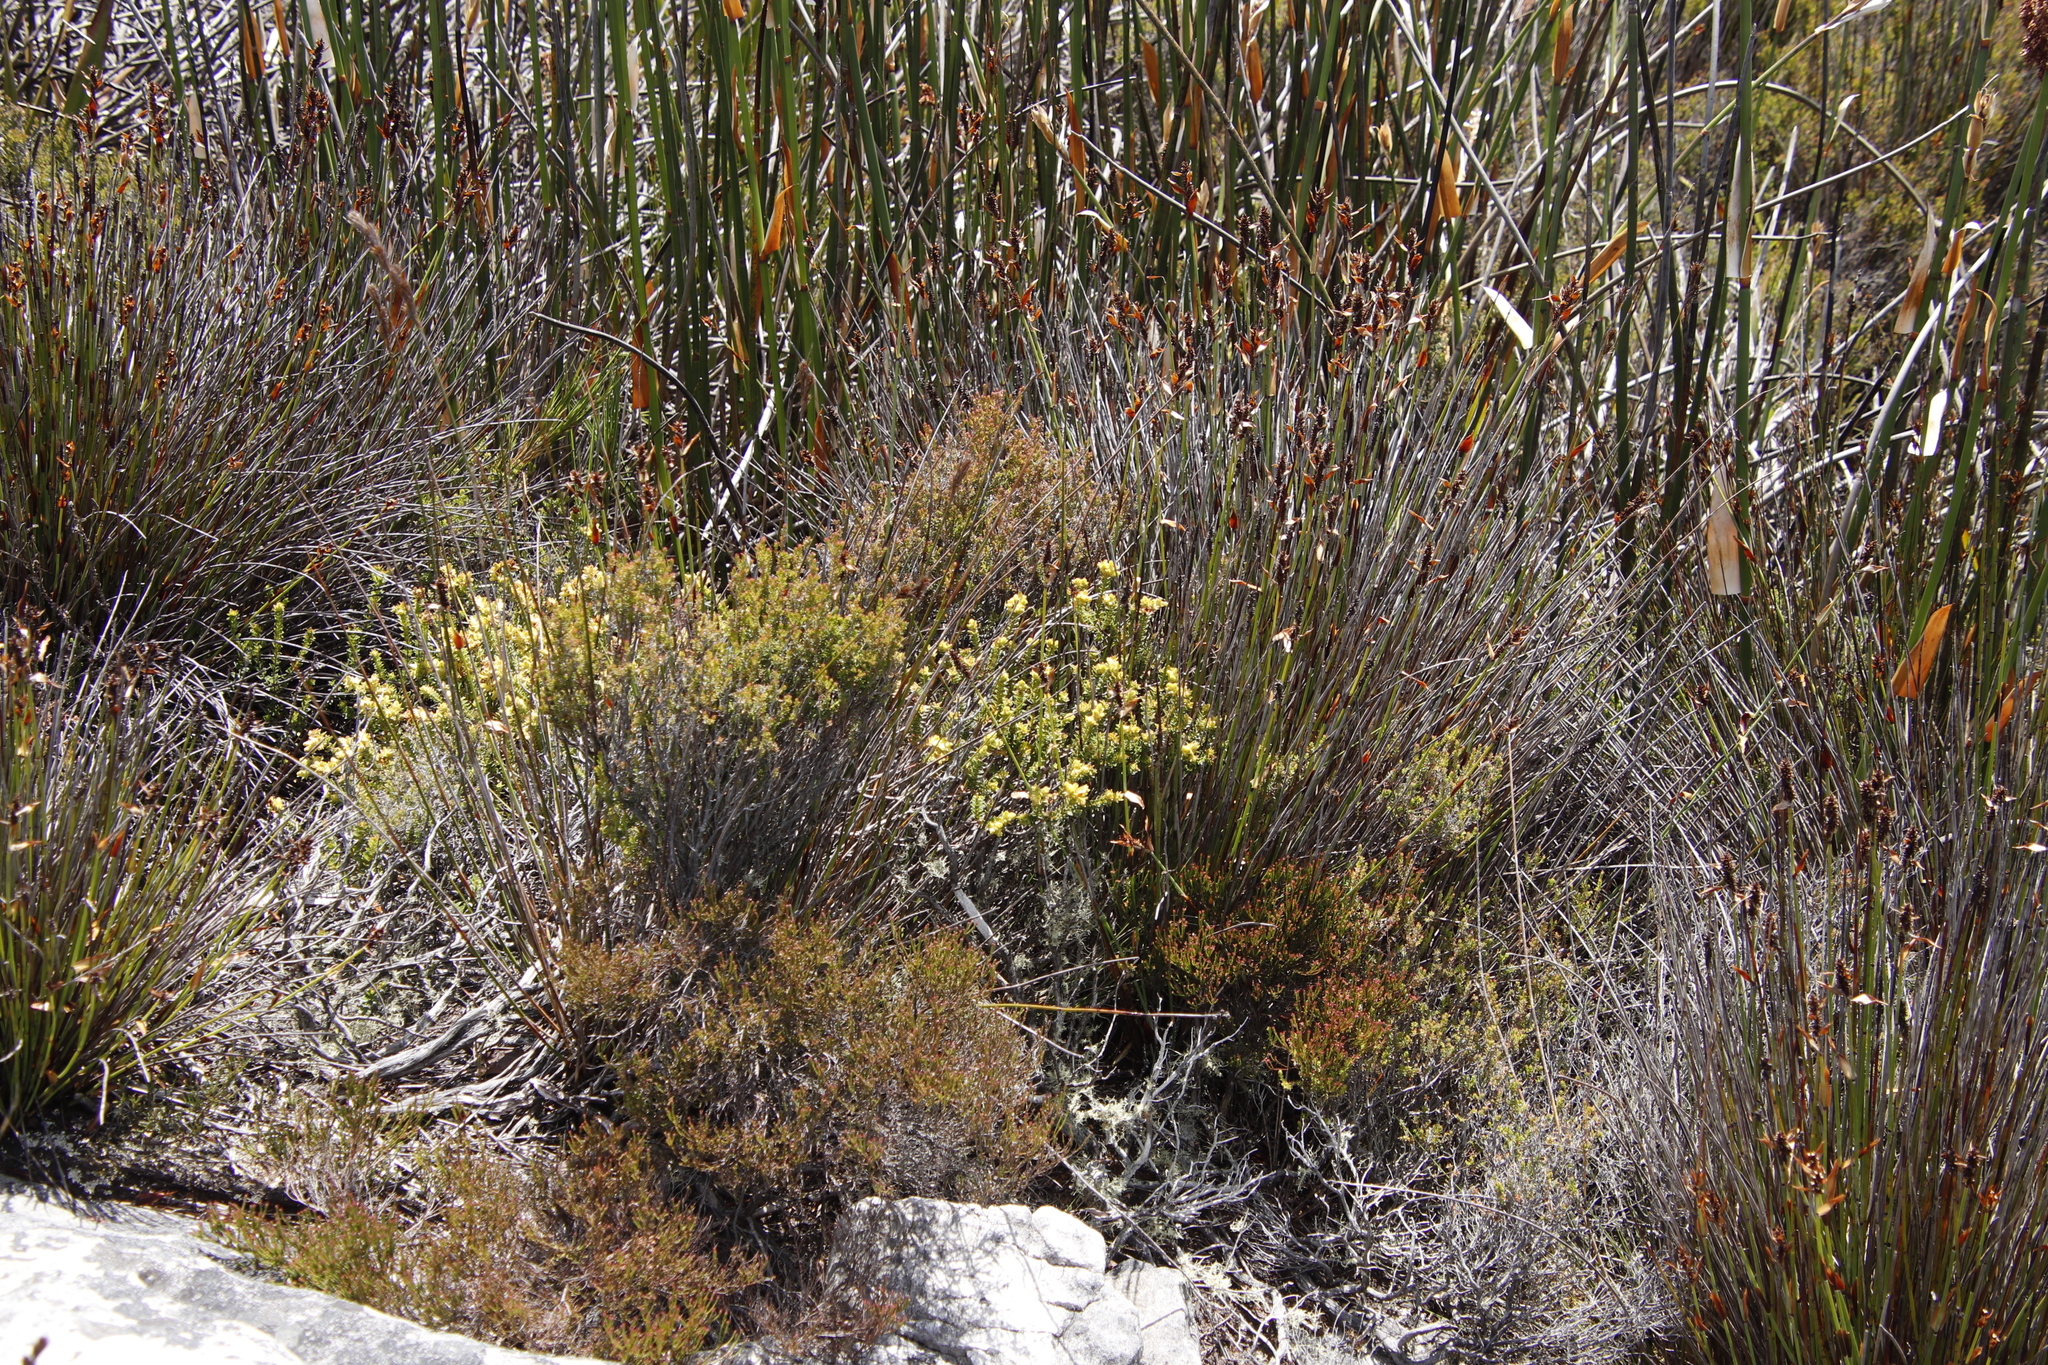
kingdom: Plantae
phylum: Tracheophyta
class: Magnoliopsida
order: Myrtales
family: Penaeaceae
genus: Penaea
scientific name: Penaea mucronata
